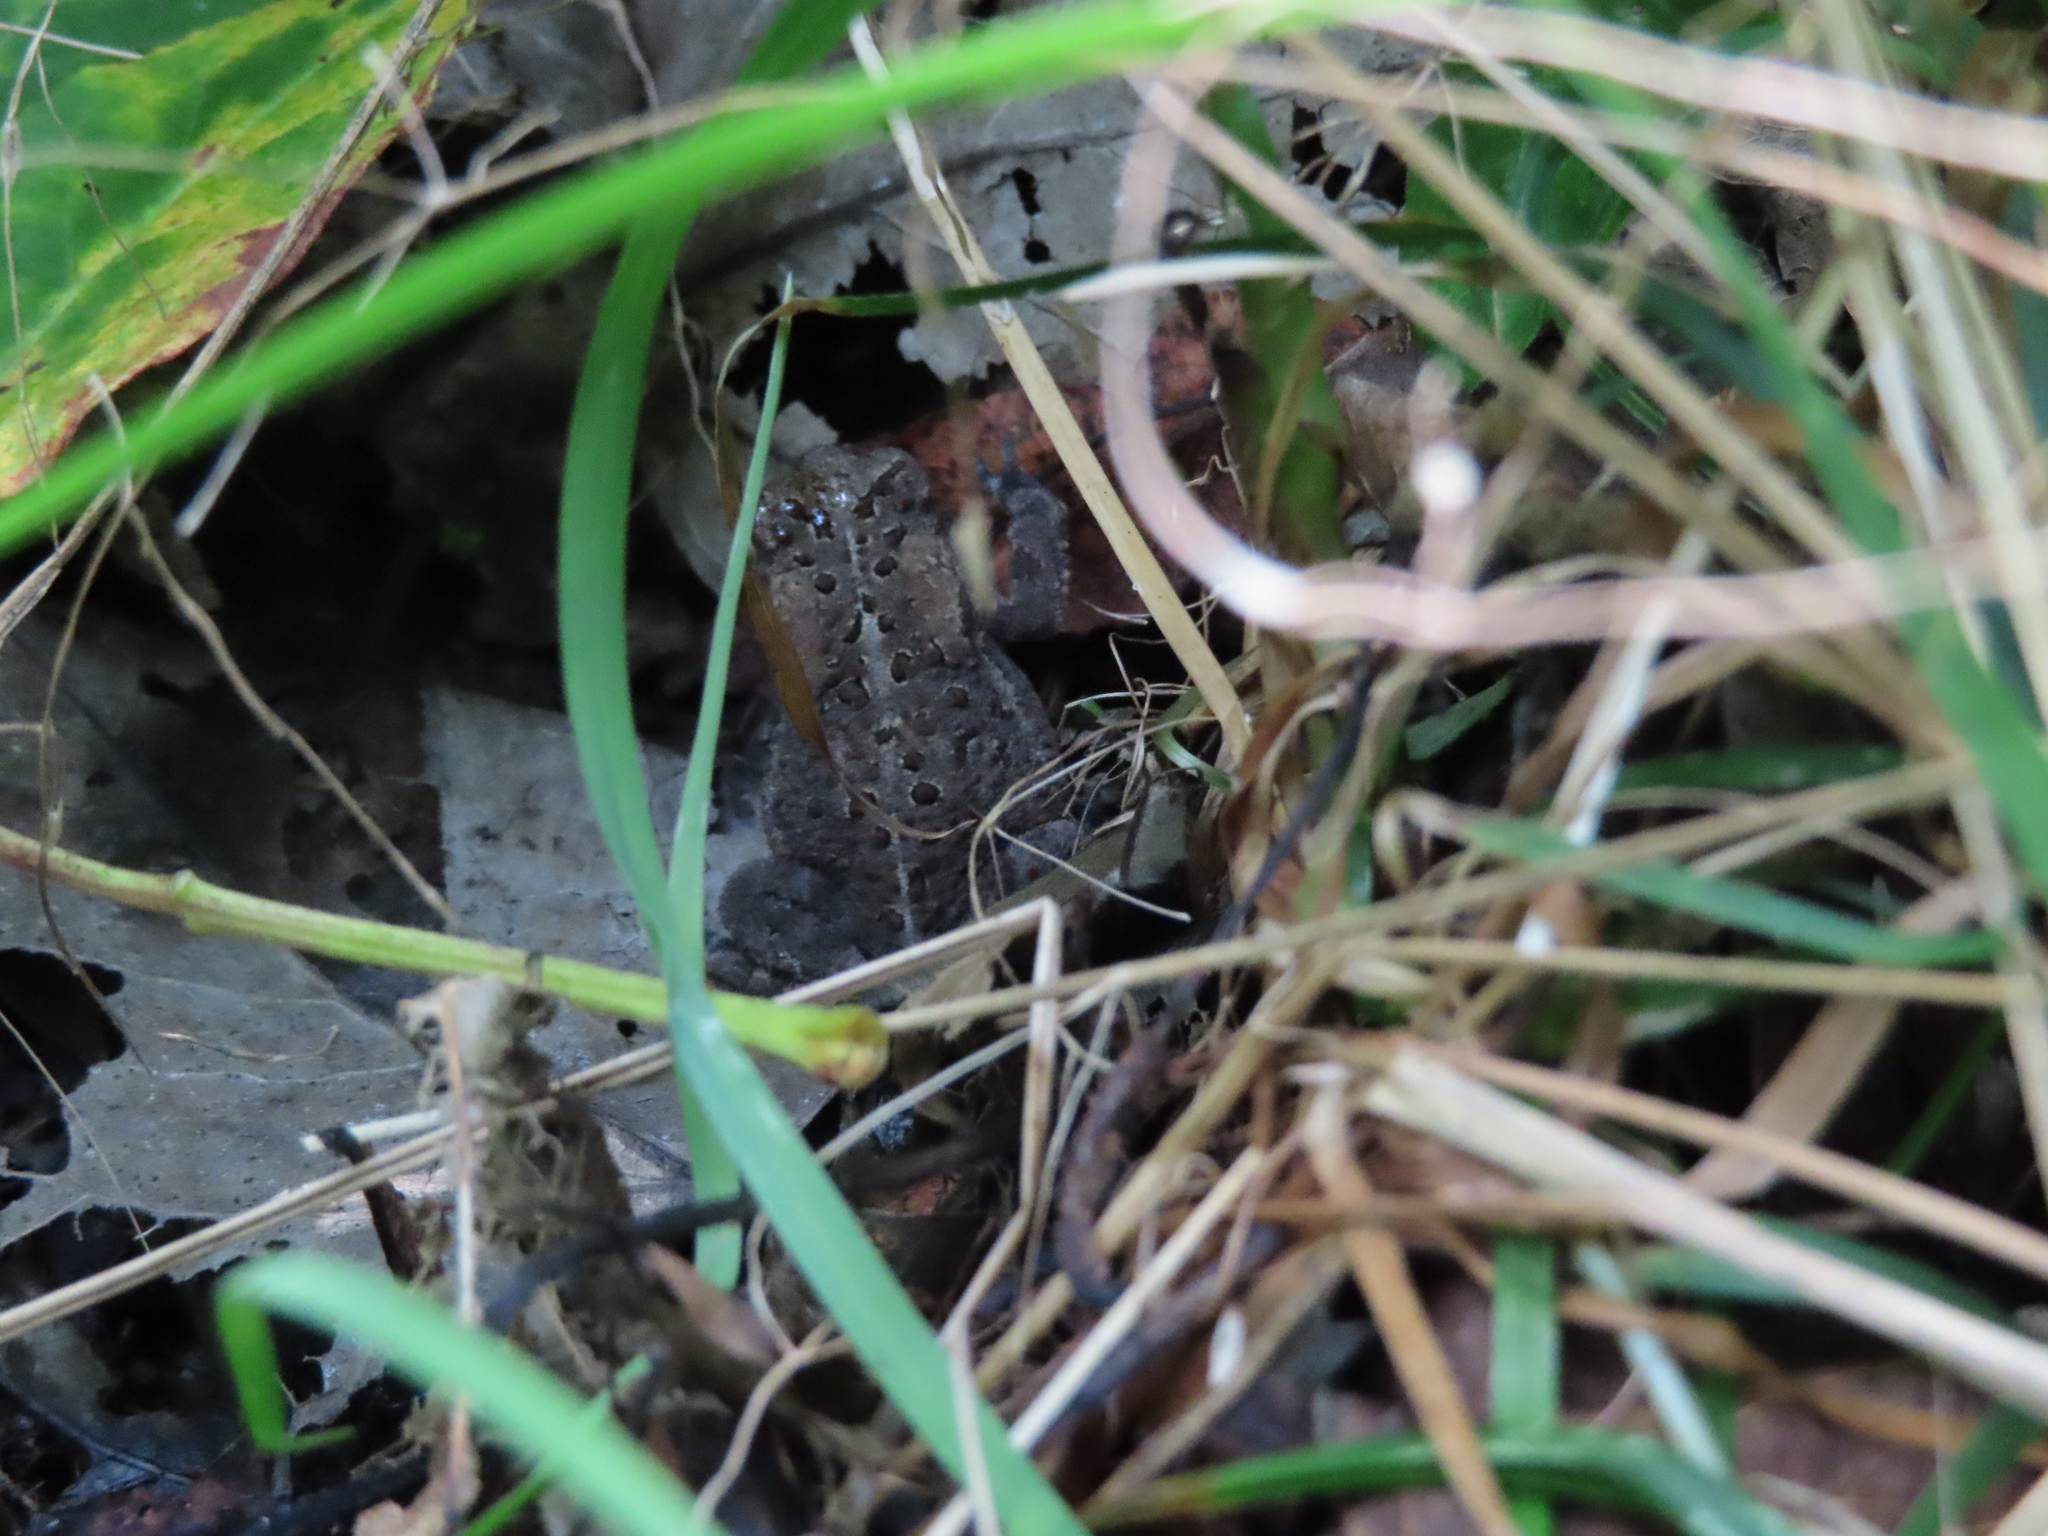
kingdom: Animalia
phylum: Chordata
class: Amphibia
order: Anura
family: Bufonidae
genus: Anaxyrus
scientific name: Anaxyrus americanus
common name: American toad
